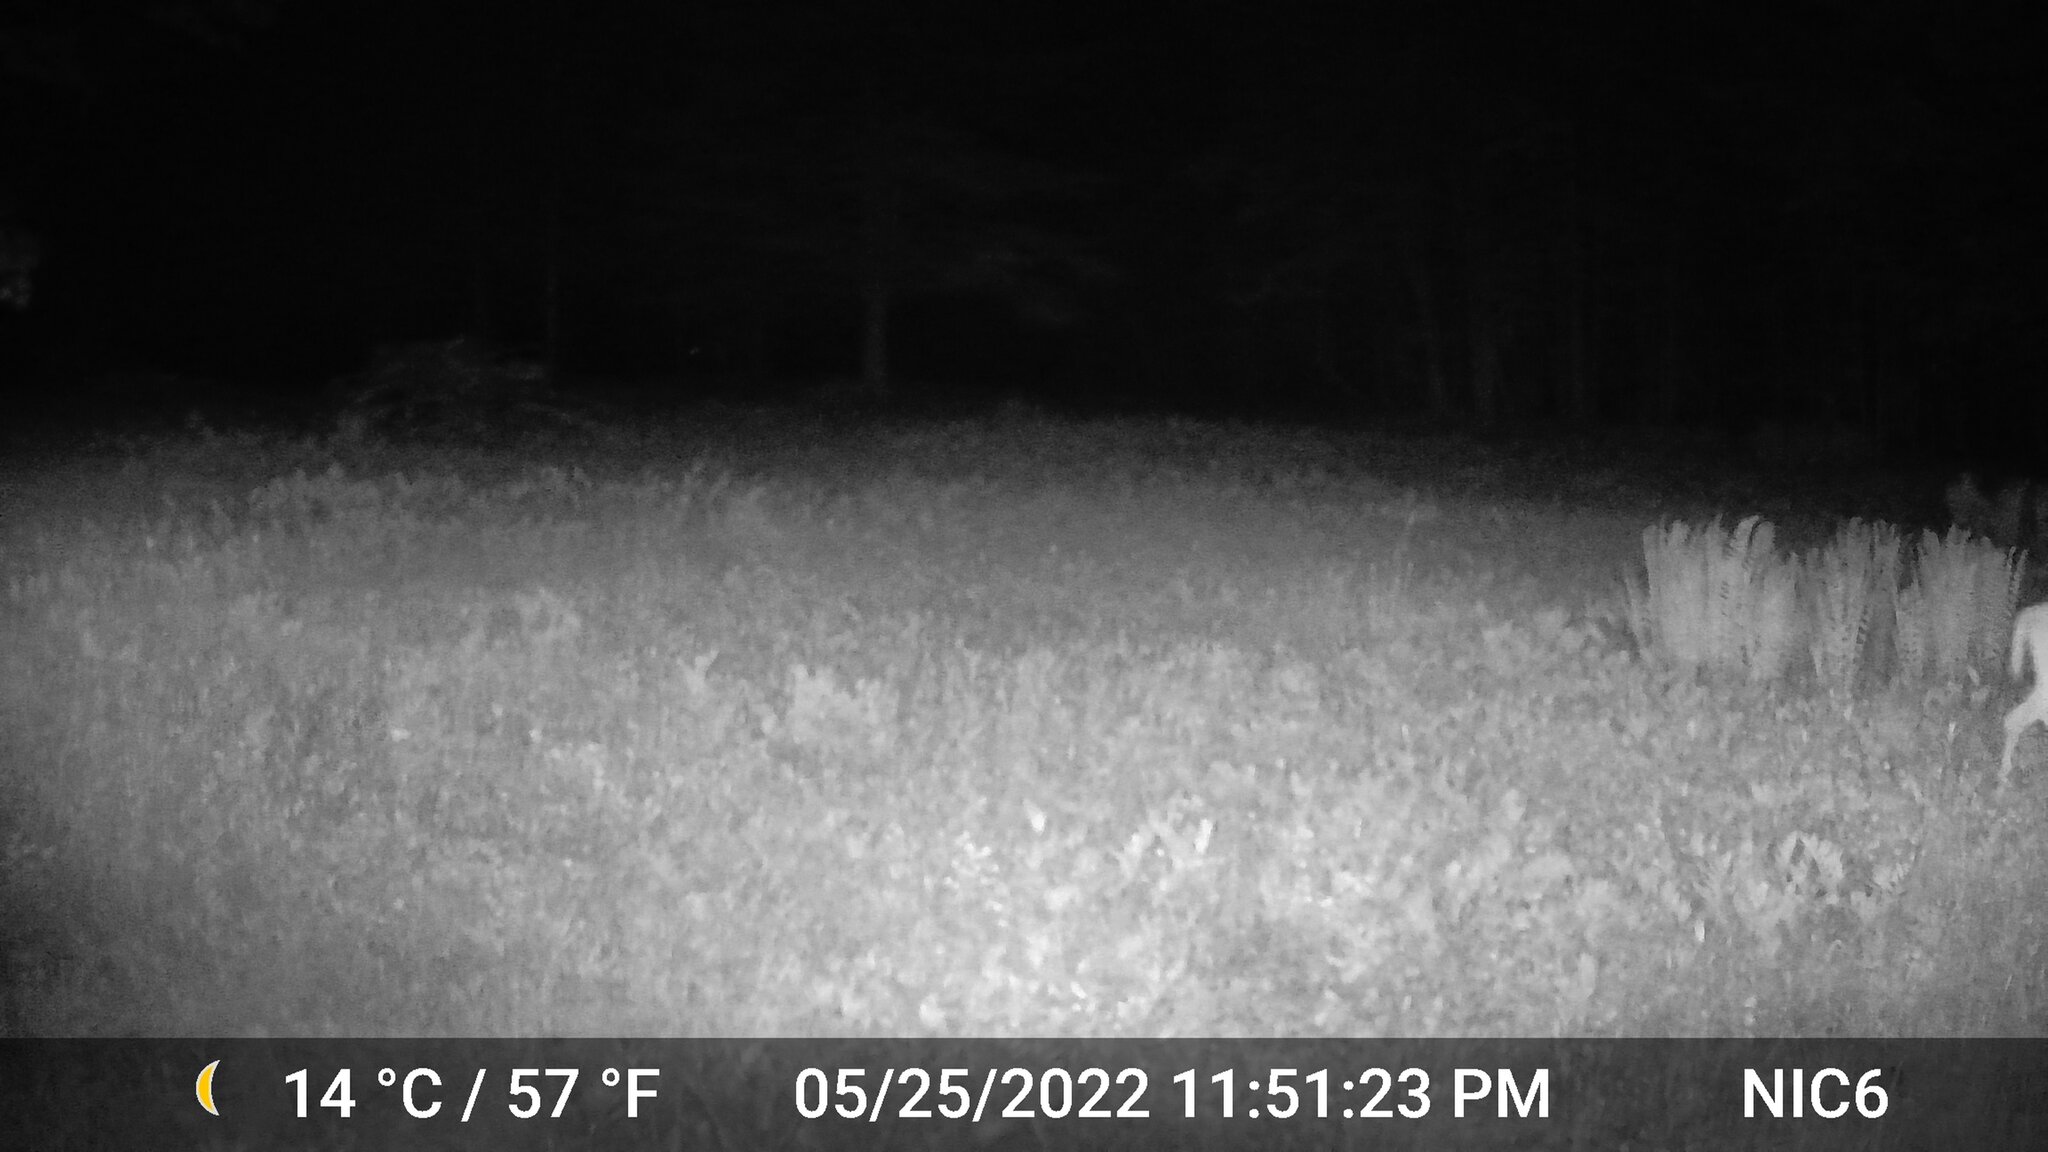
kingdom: Animalia
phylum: Chordata
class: Mammalia
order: Artiodactyla
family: Cervidae
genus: Odocoileus
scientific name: Odocoileus virginianus
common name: White-tailed deer
